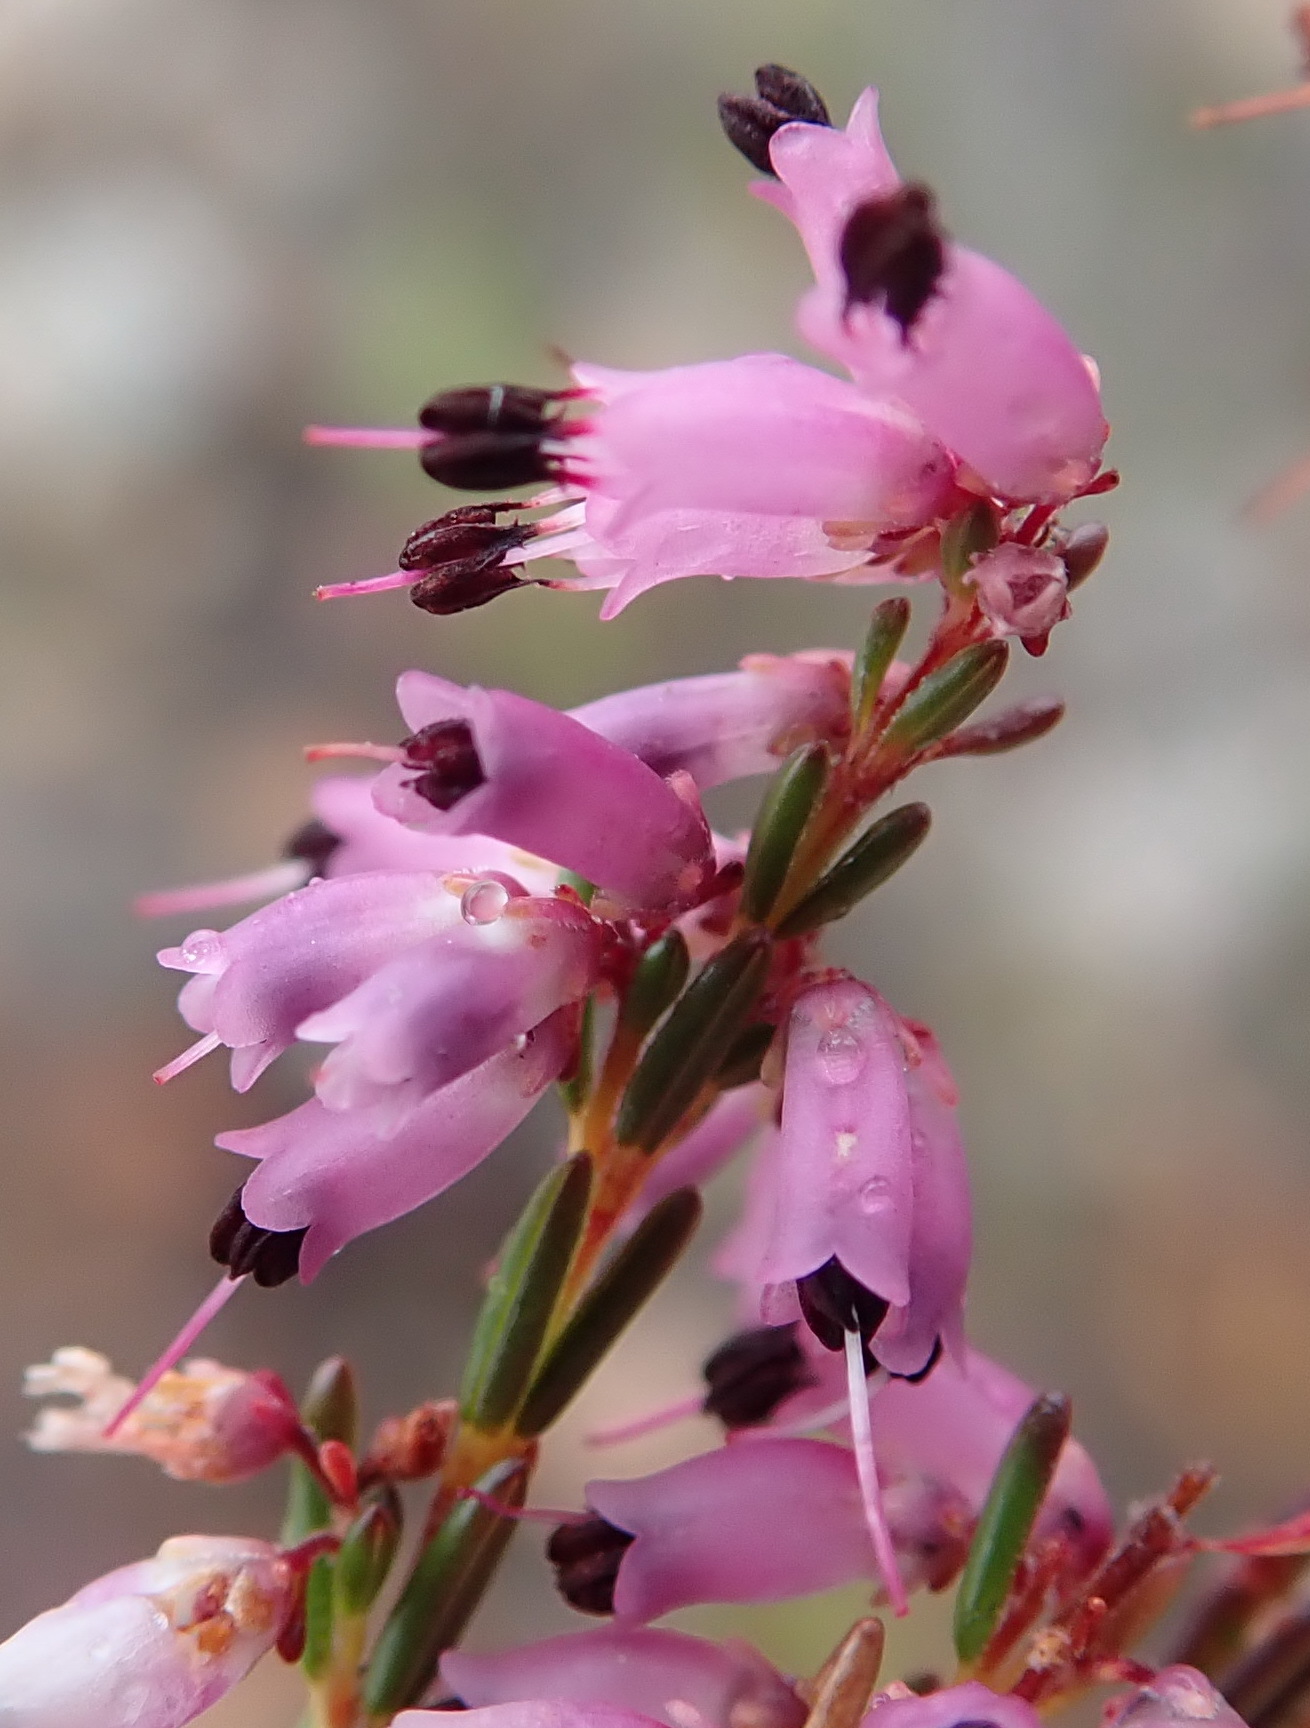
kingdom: Plantae
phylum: Tracheophyta
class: Magnoliopsida
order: Ericales
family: Ericaceae
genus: Erica
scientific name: Erica rosacea
